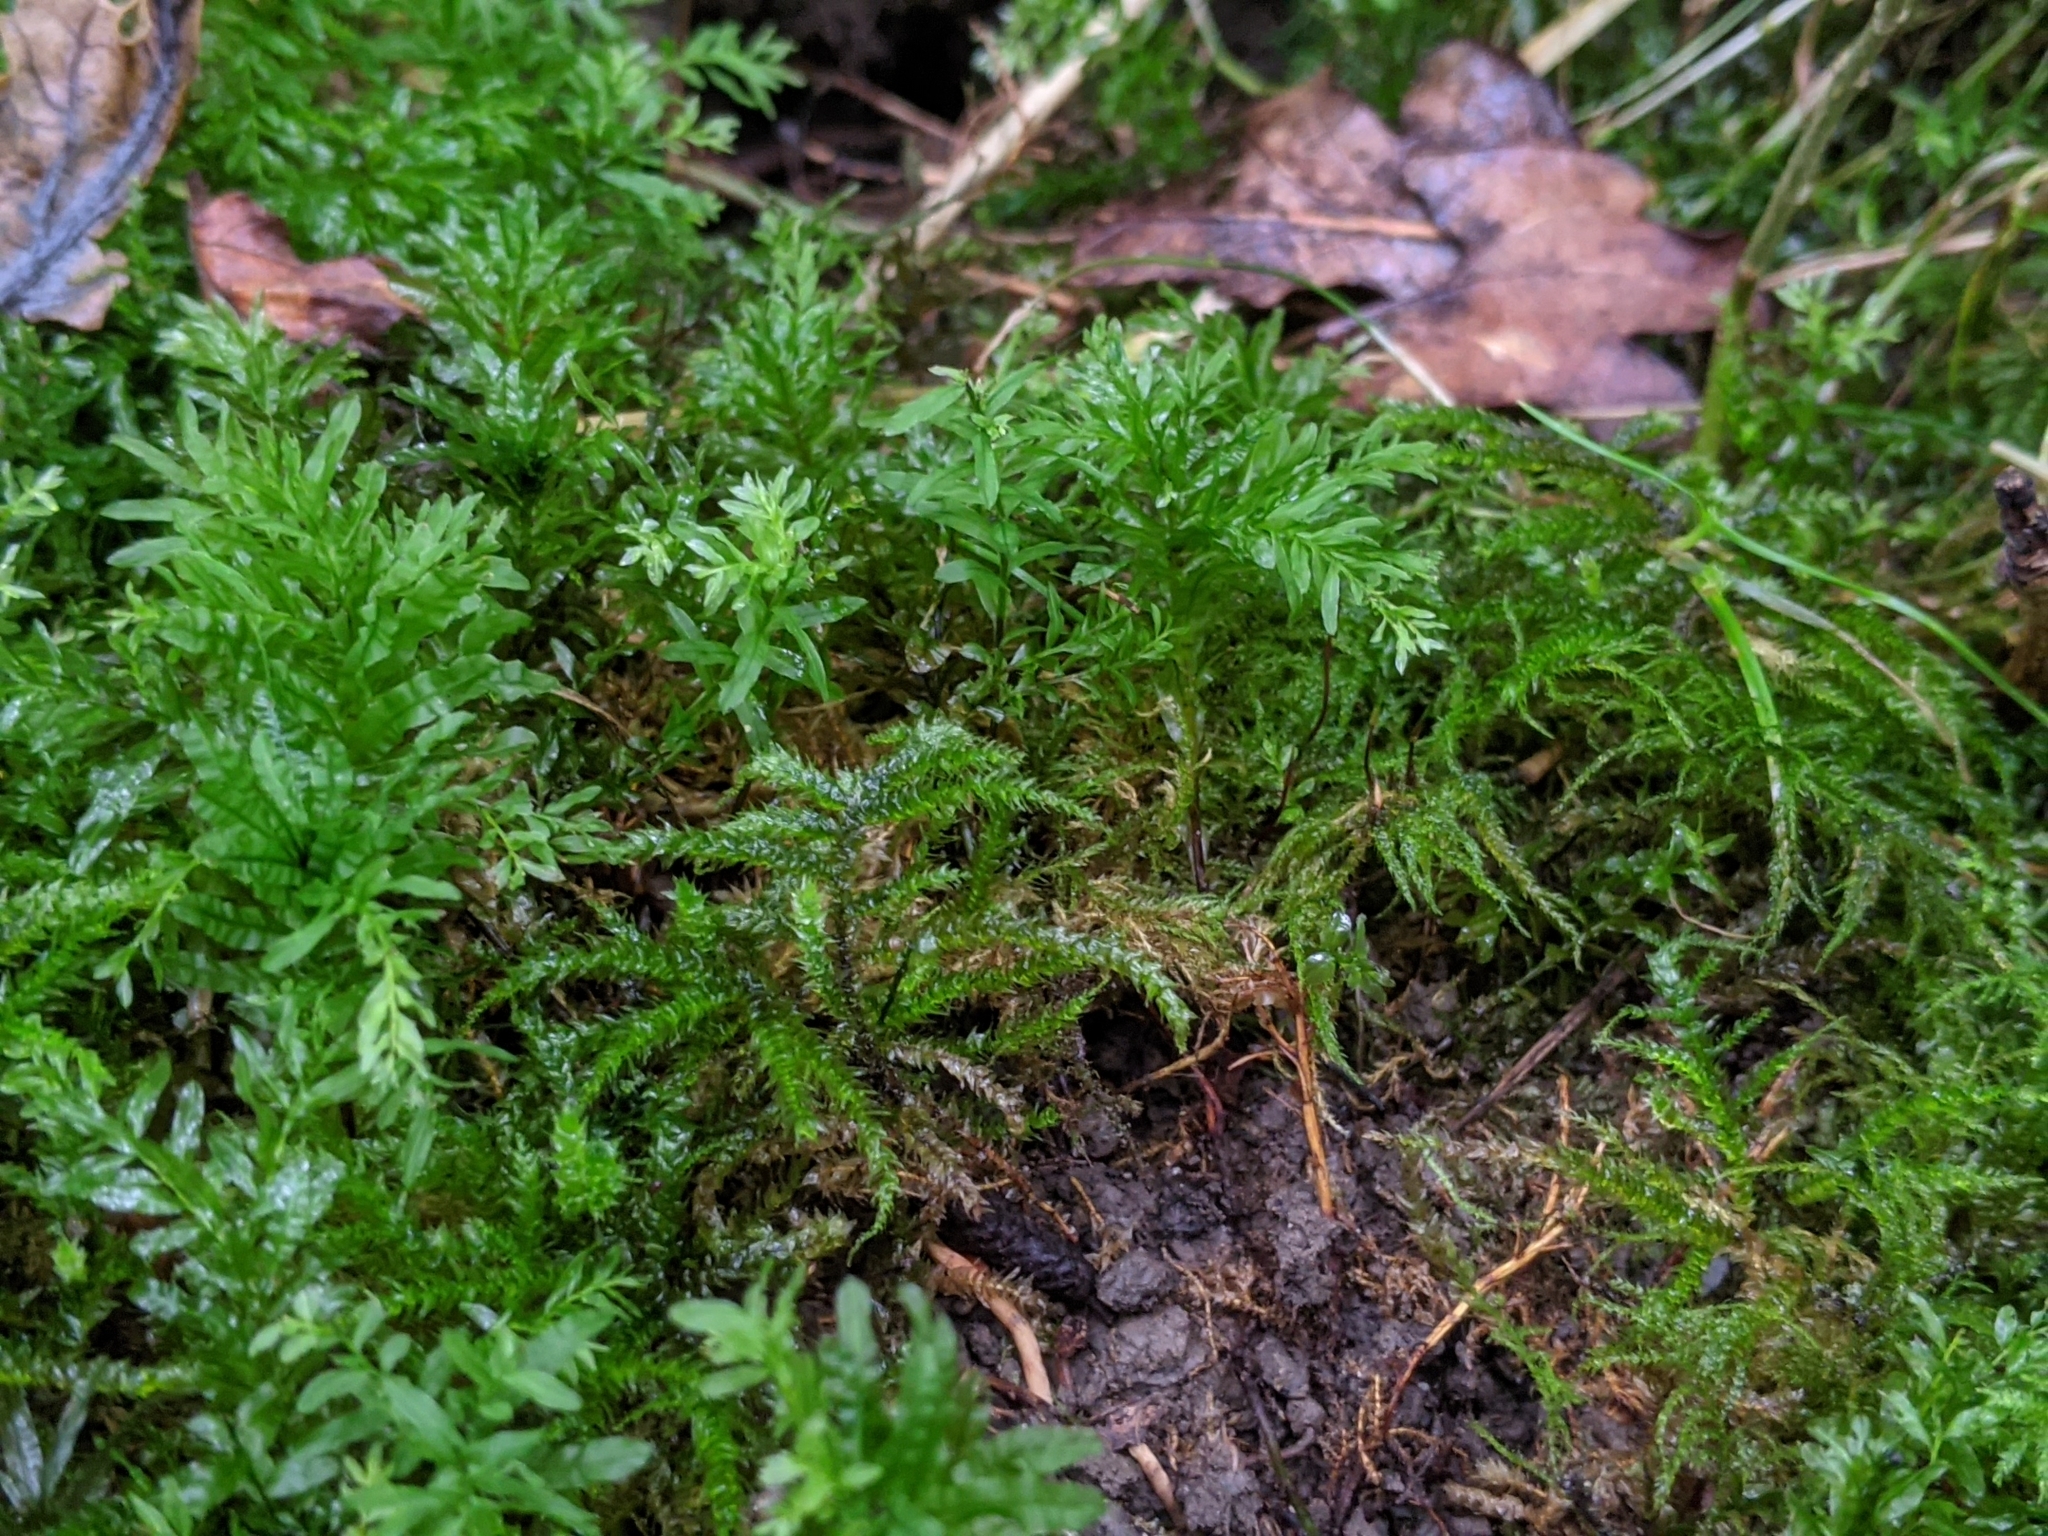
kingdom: Plantae
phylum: Bryophyta
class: Bryopsida
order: Bryales
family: Mniaceae
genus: Plagiomnium
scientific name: Plagiomnium undulatum
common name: Hart's-tongue thyme-moss
